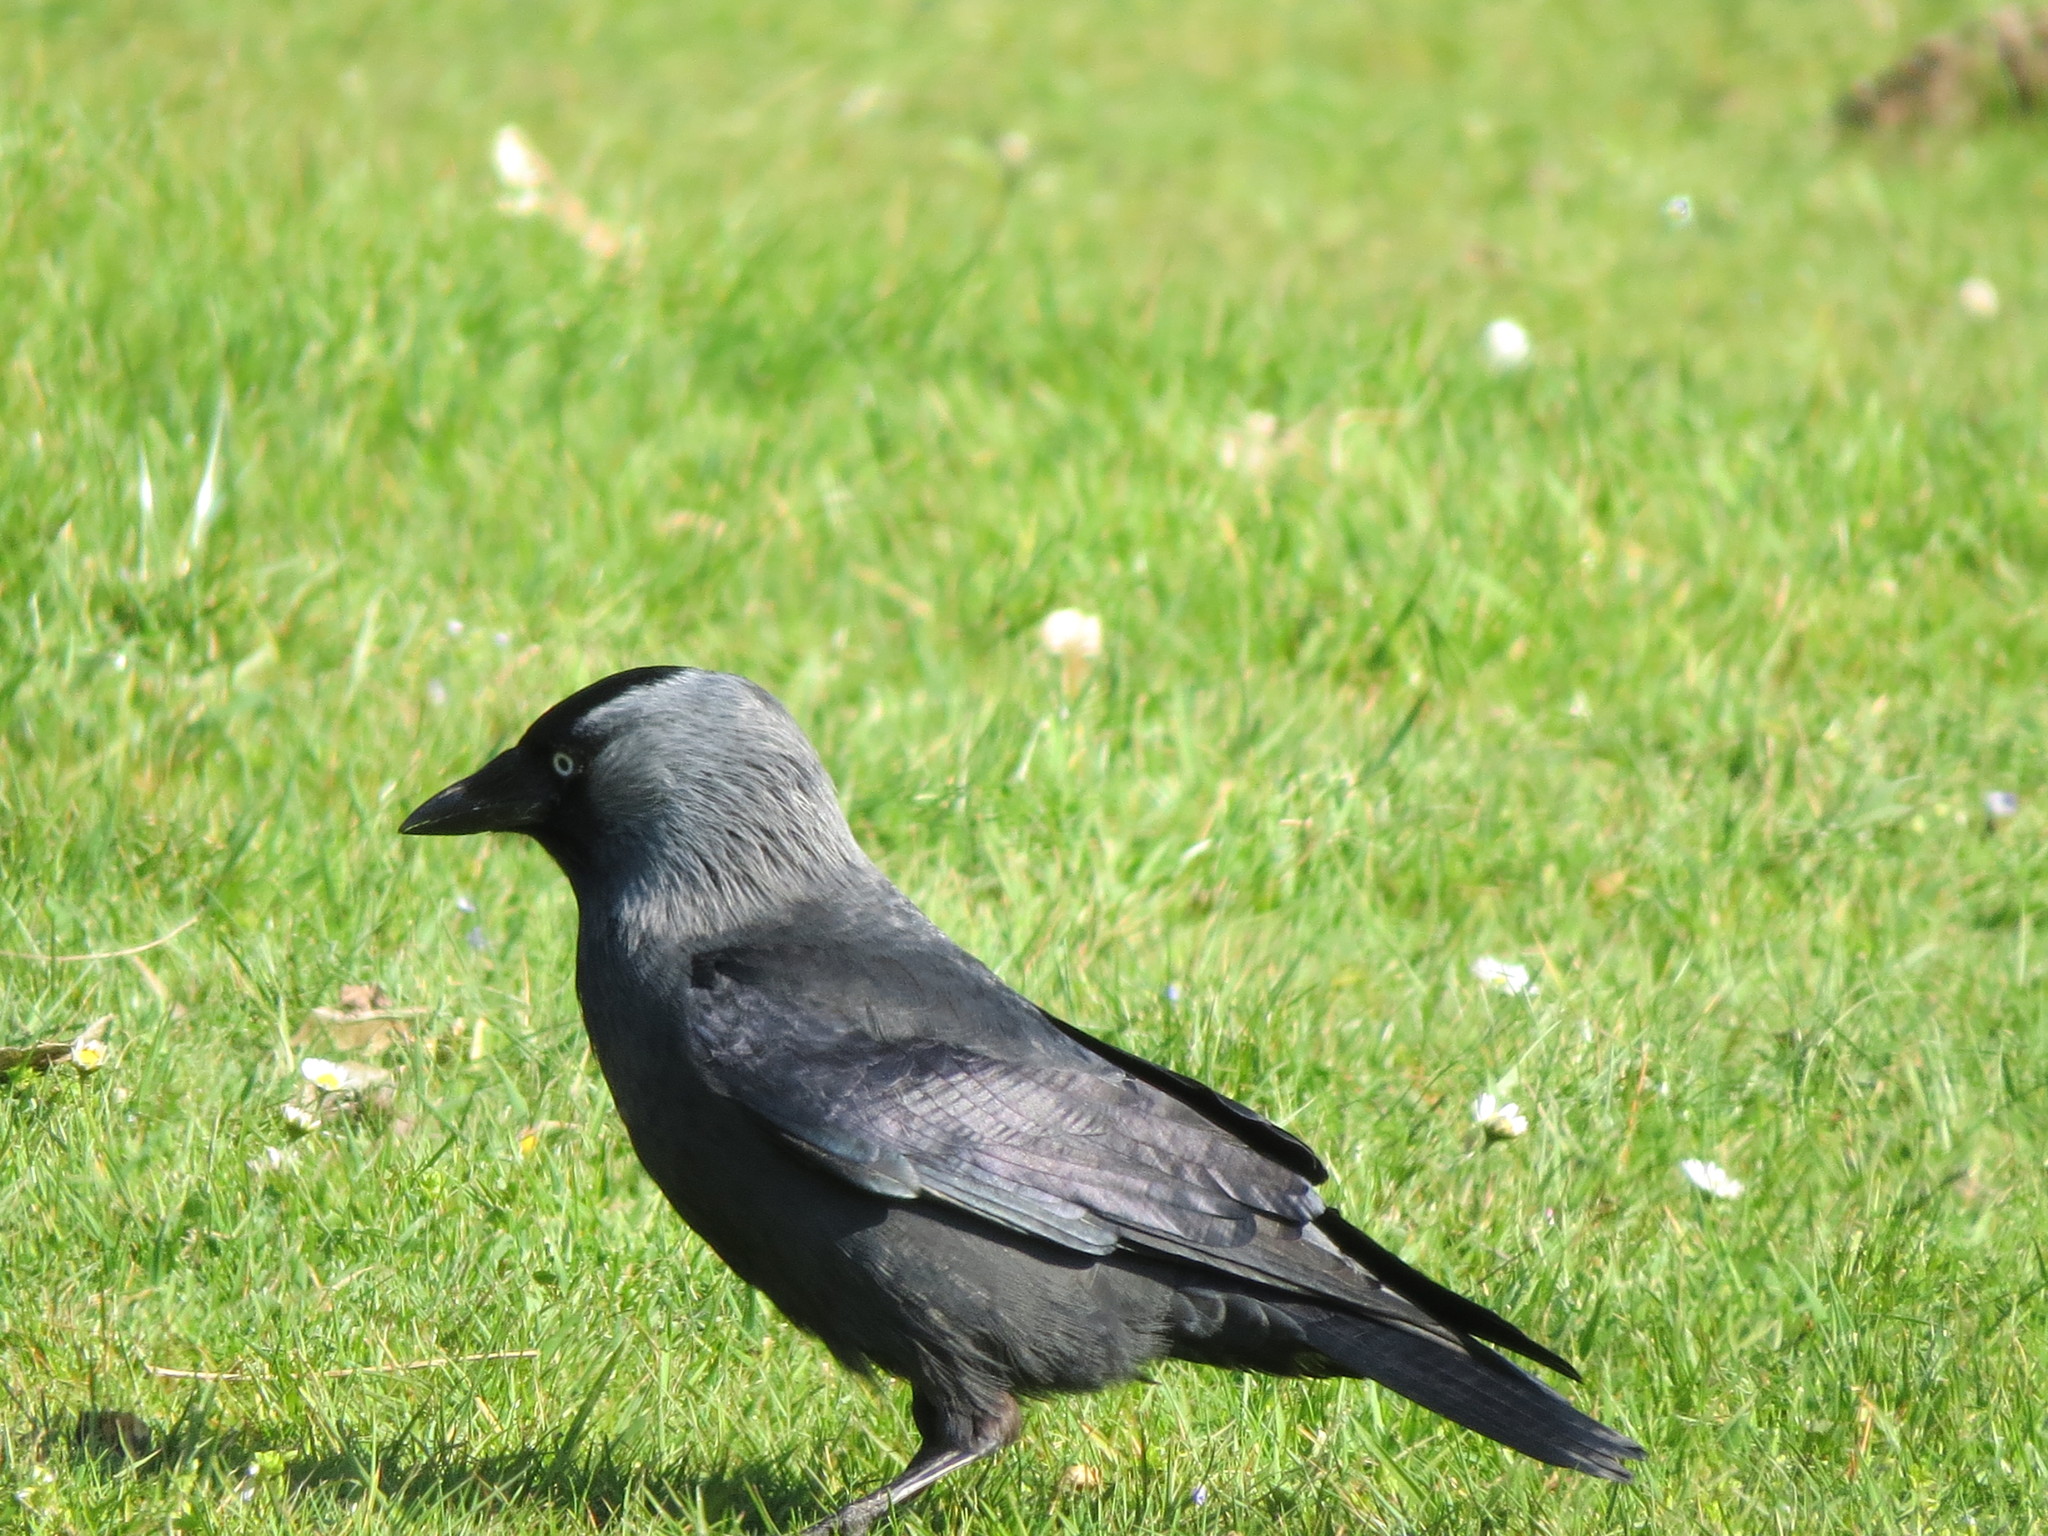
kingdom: Animalia
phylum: Chordata
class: Aves
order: Passeriformes
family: Corvidae
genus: Coloeus
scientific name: Coloeus monedula
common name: Western jackdaw
